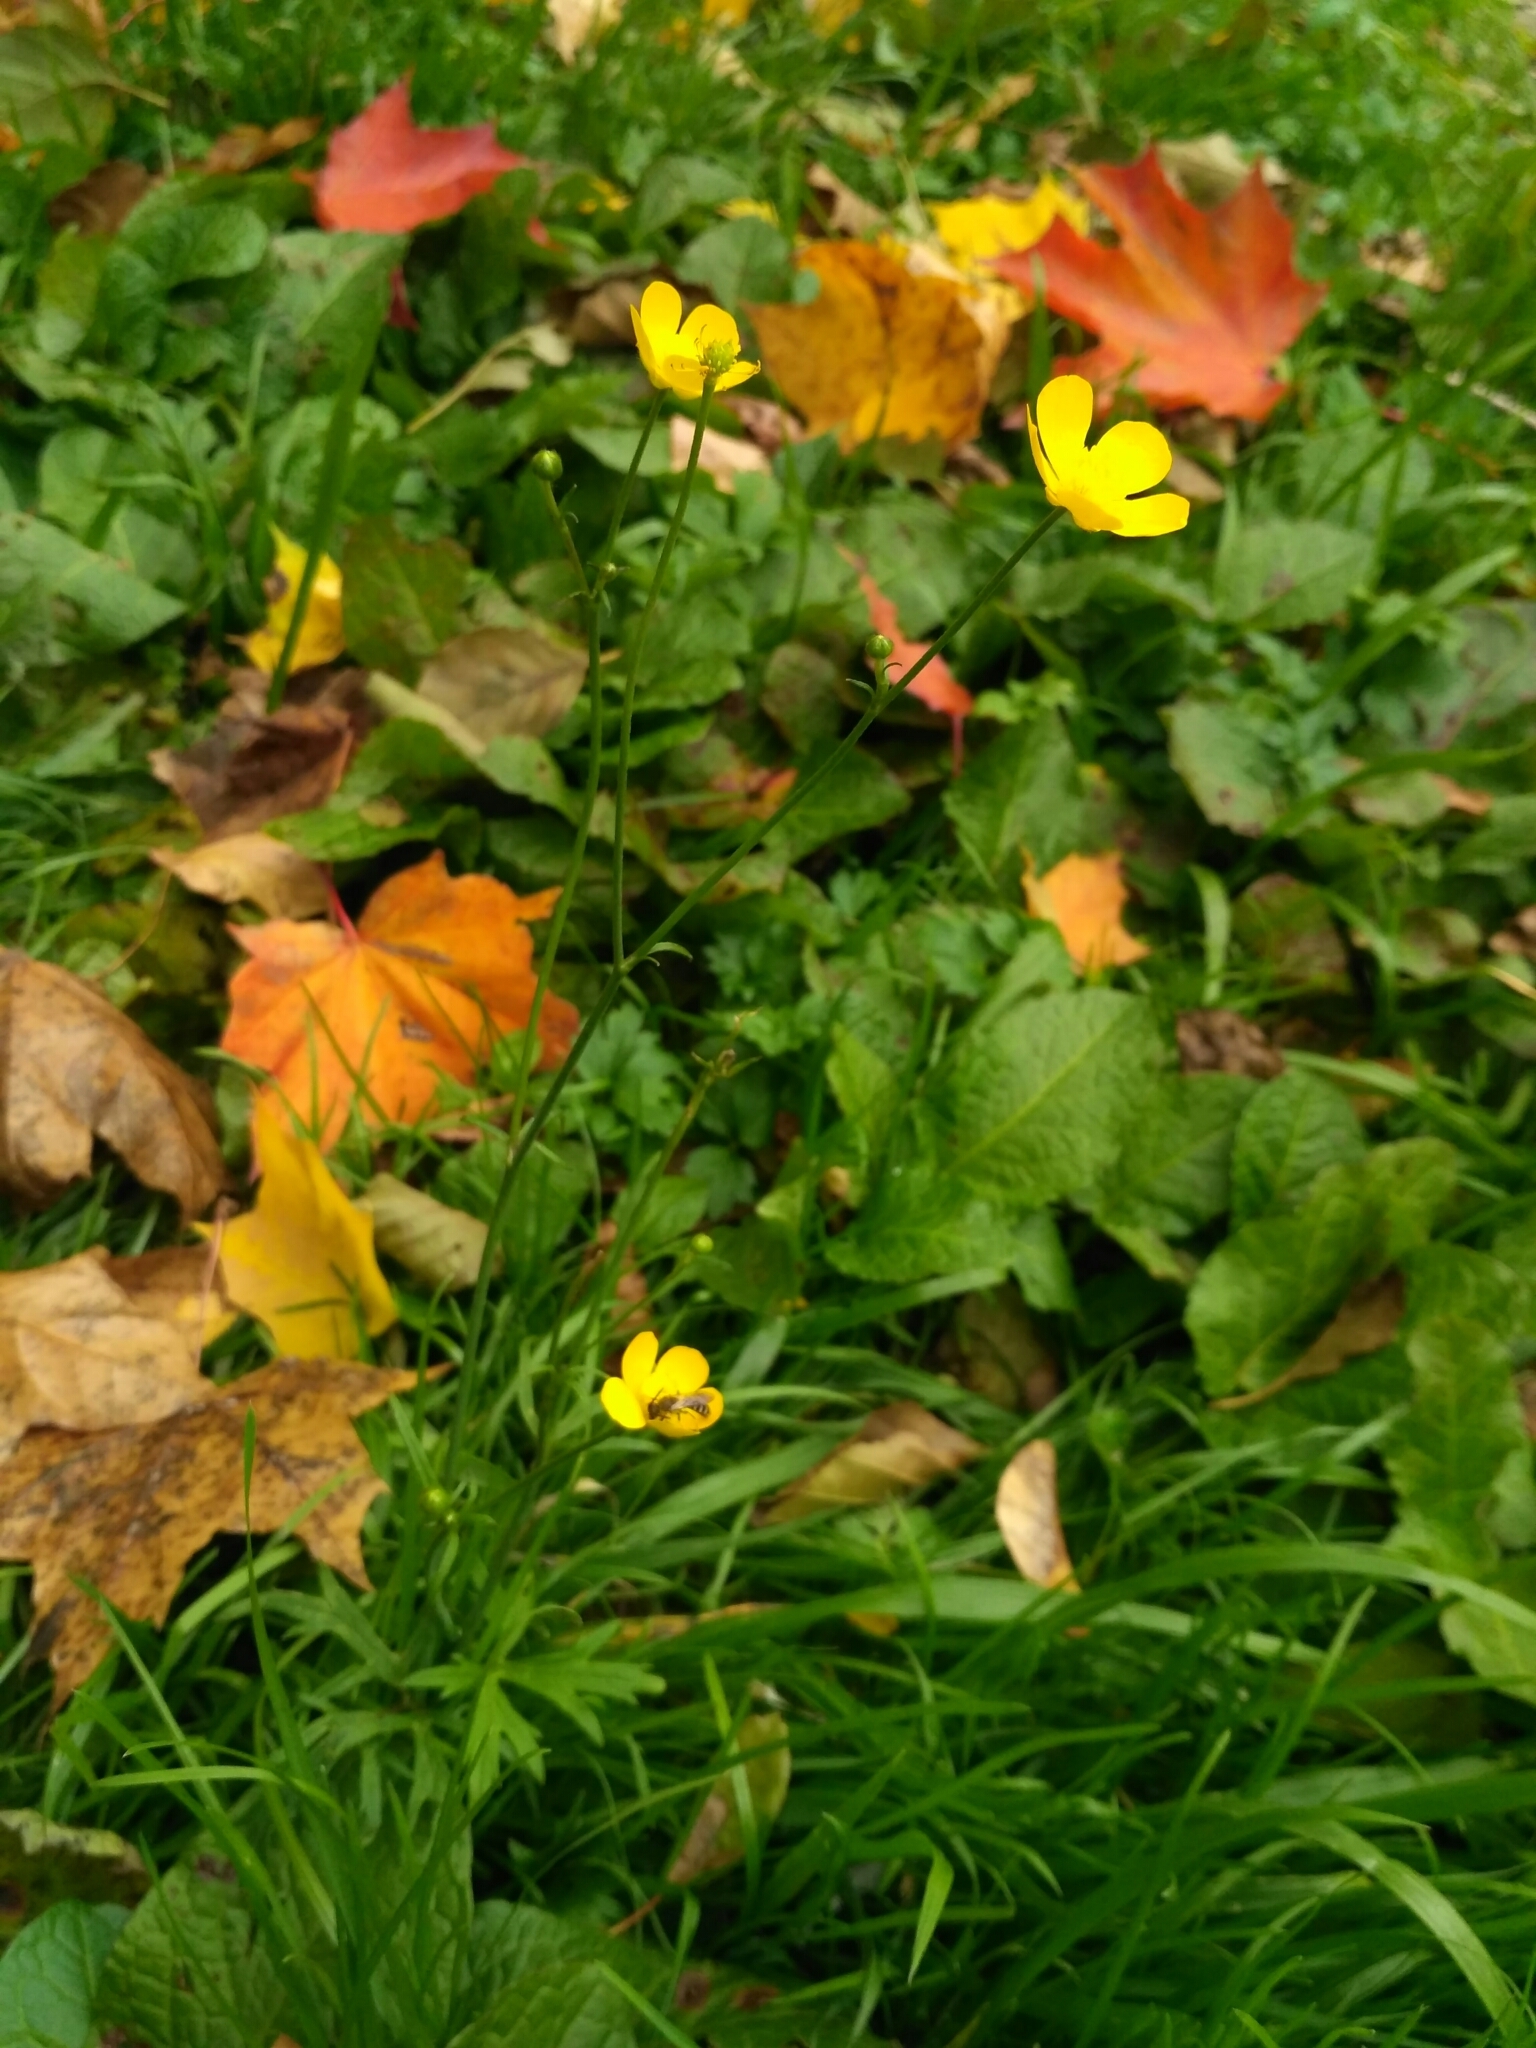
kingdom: Plantae
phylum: Tracheophyta
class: Magnoliopsida
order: Ranunculales
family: Ranunculaceae
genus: Ranunculus
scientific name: Ranunculus acris
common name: Meadow buttercup
